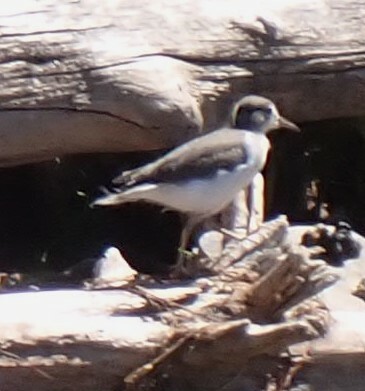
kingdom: Animalia
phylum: Chordata
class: Aves
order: Charadriiformes
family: Scolopacidae
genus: Actitis
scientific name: Actitis macularius
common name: Spotted sandpiper
